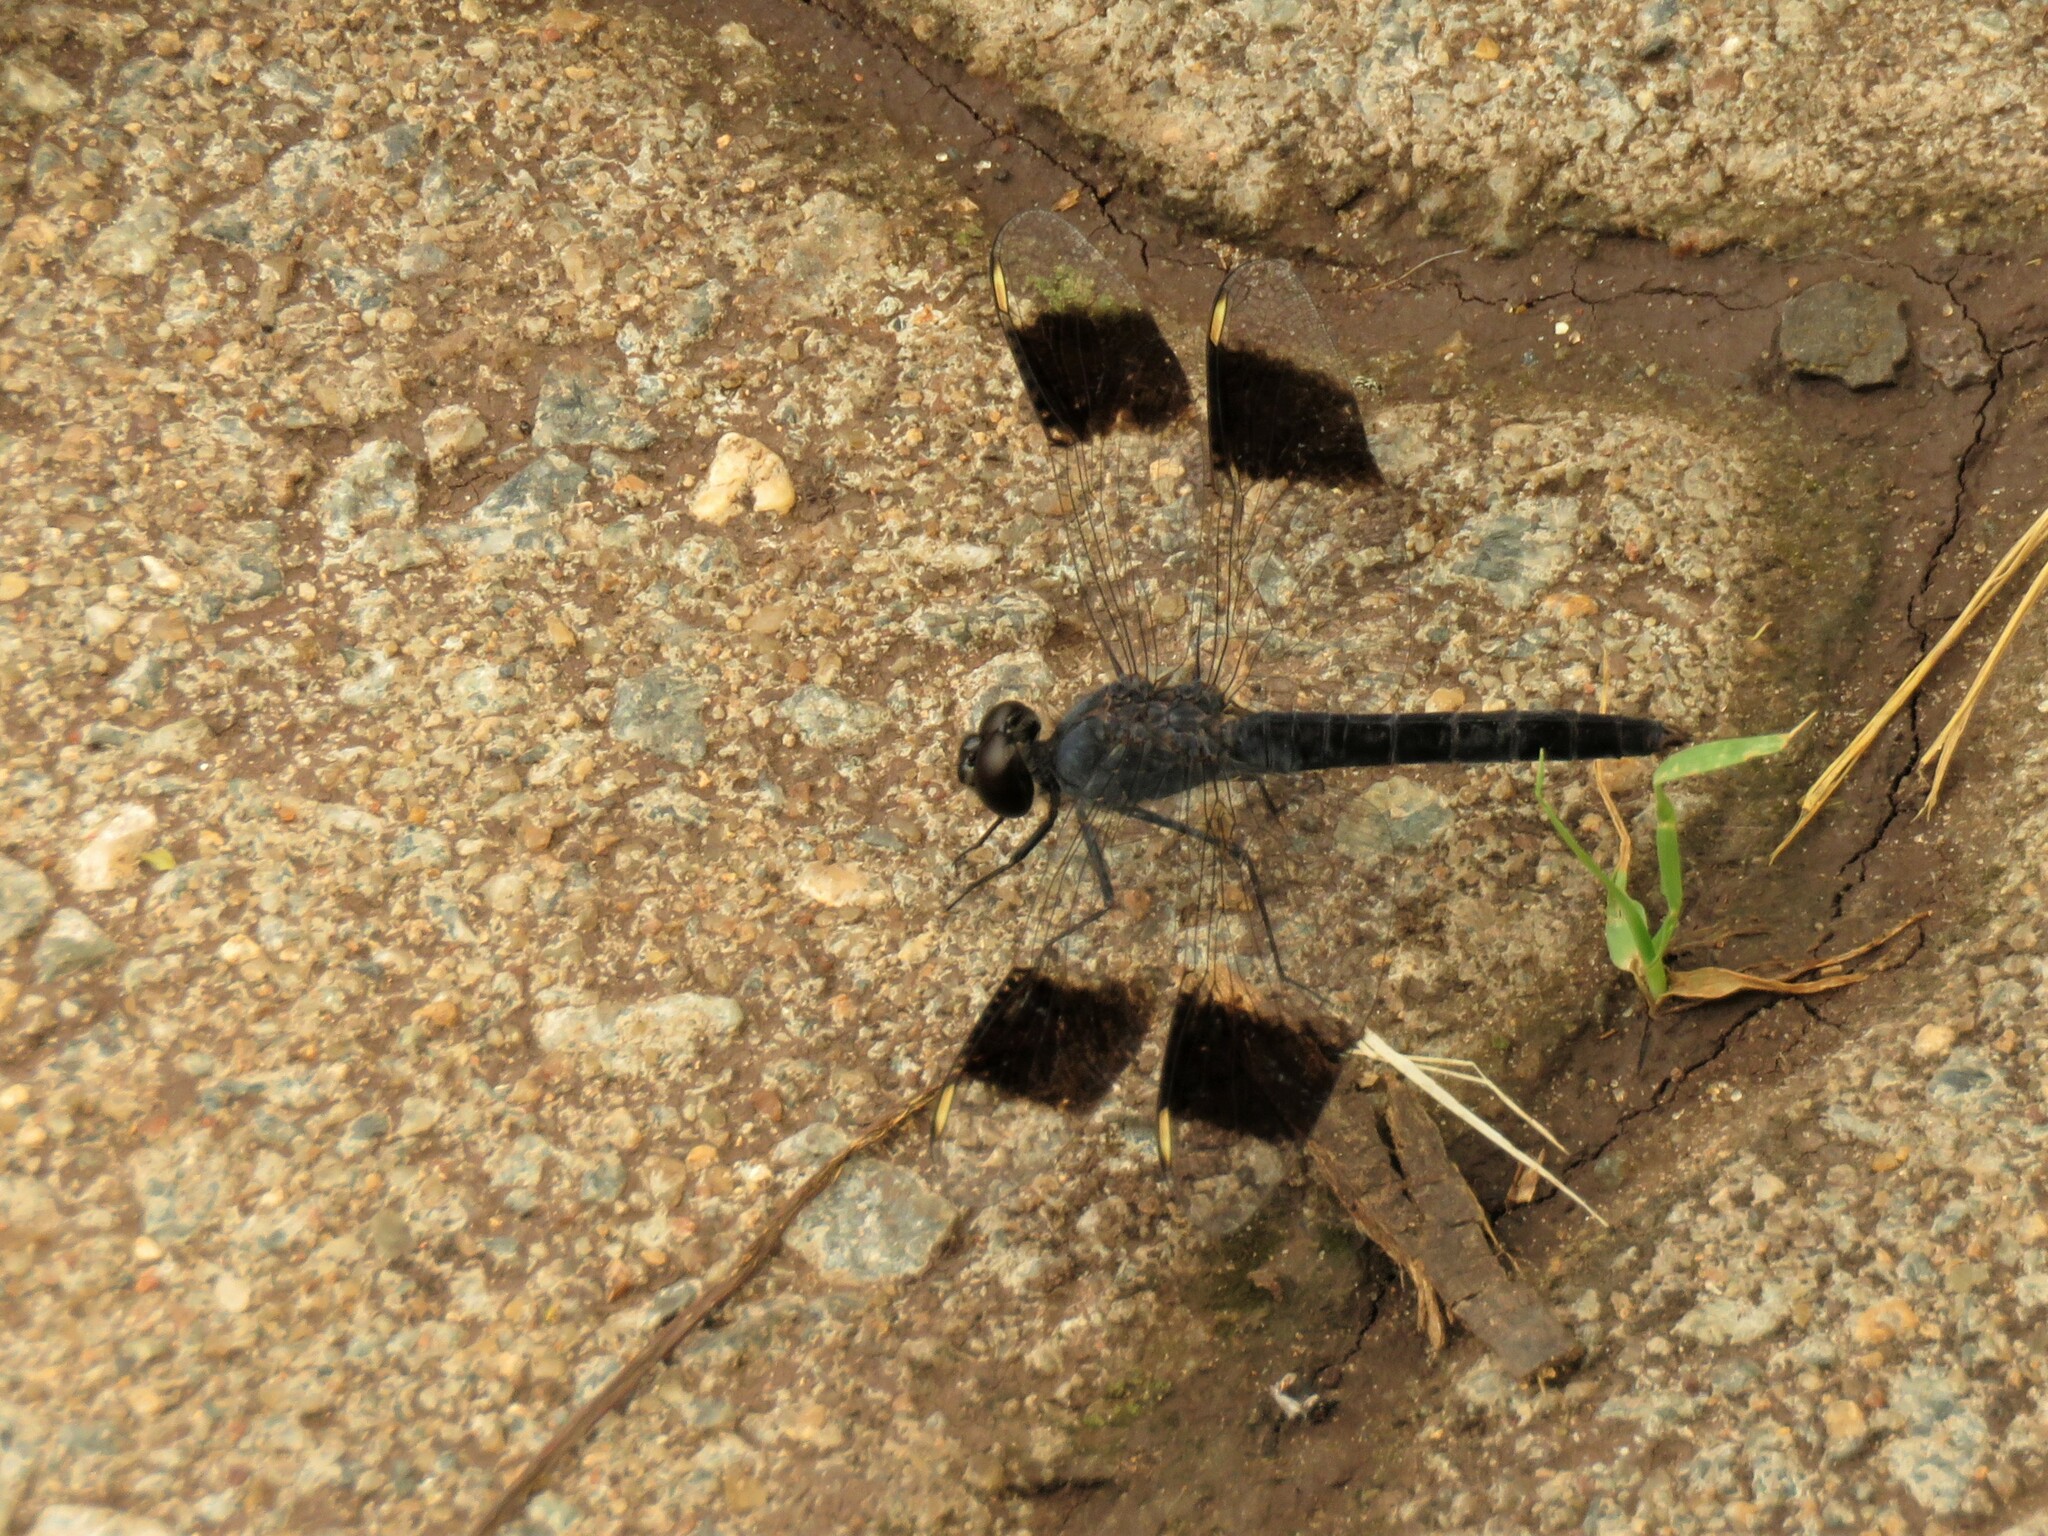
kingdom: Animalia
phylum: Arthropoda
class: Insecta
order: Odonata
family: Libellulidae
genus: Brachythemis
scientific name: Brachythemis leucosticta
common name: Banded groundling
